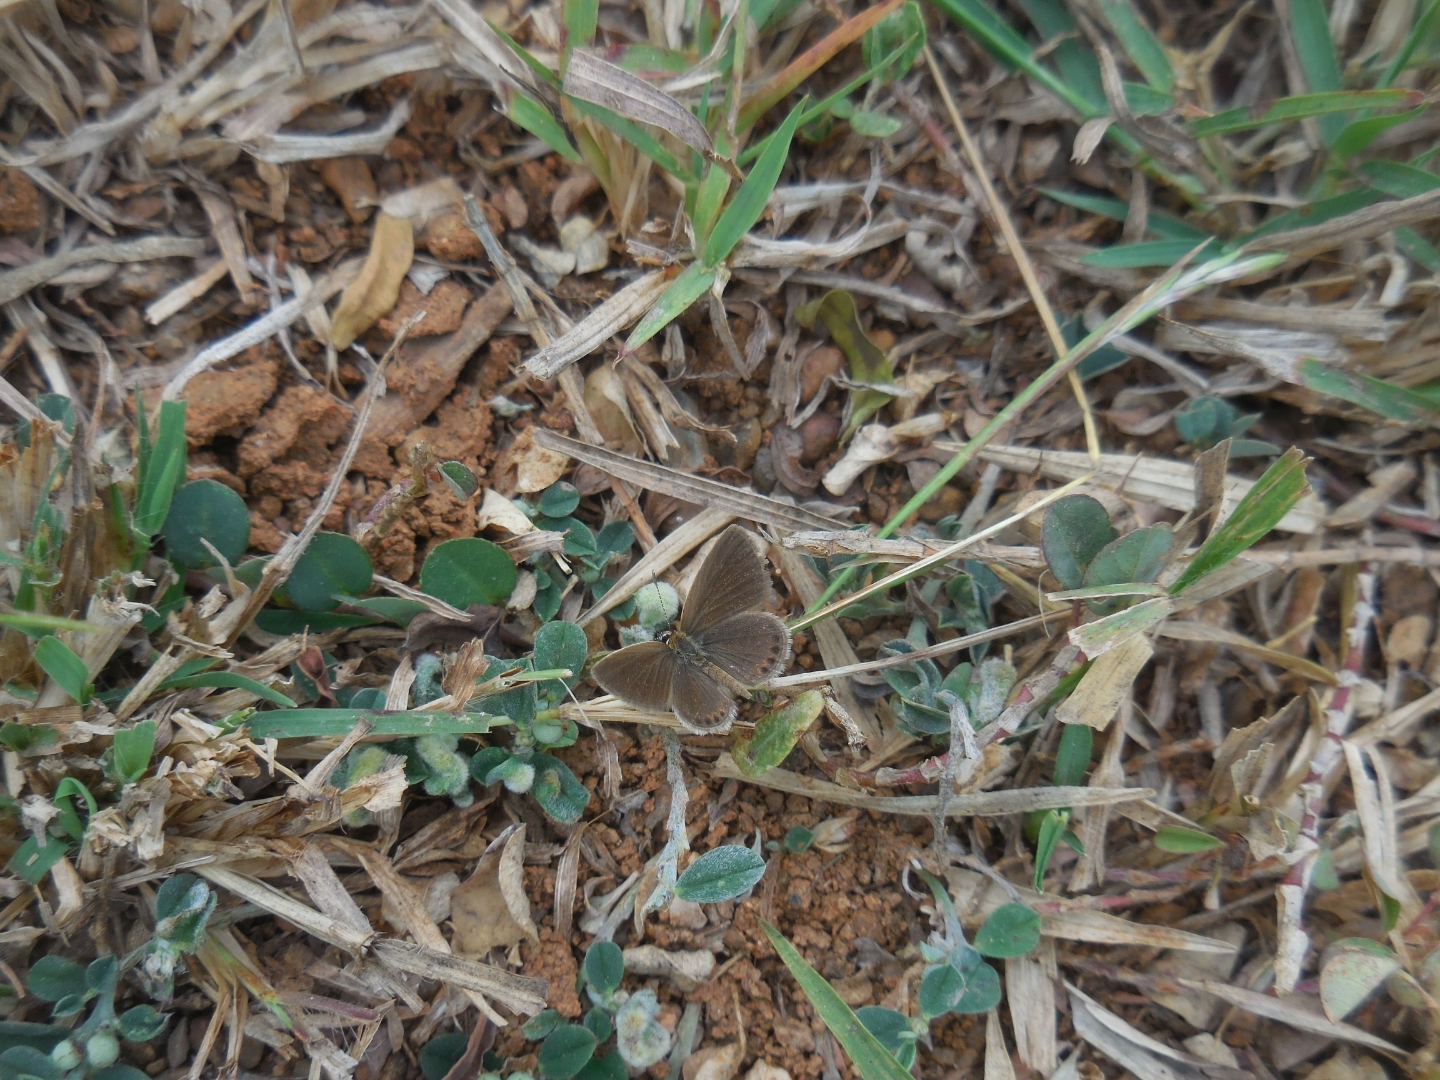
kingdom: Animalia
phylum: Arthropoda
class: Insecta
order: Lepidoptera
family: Lycaenidae
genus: Freyeria
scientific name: Freyeria putli
